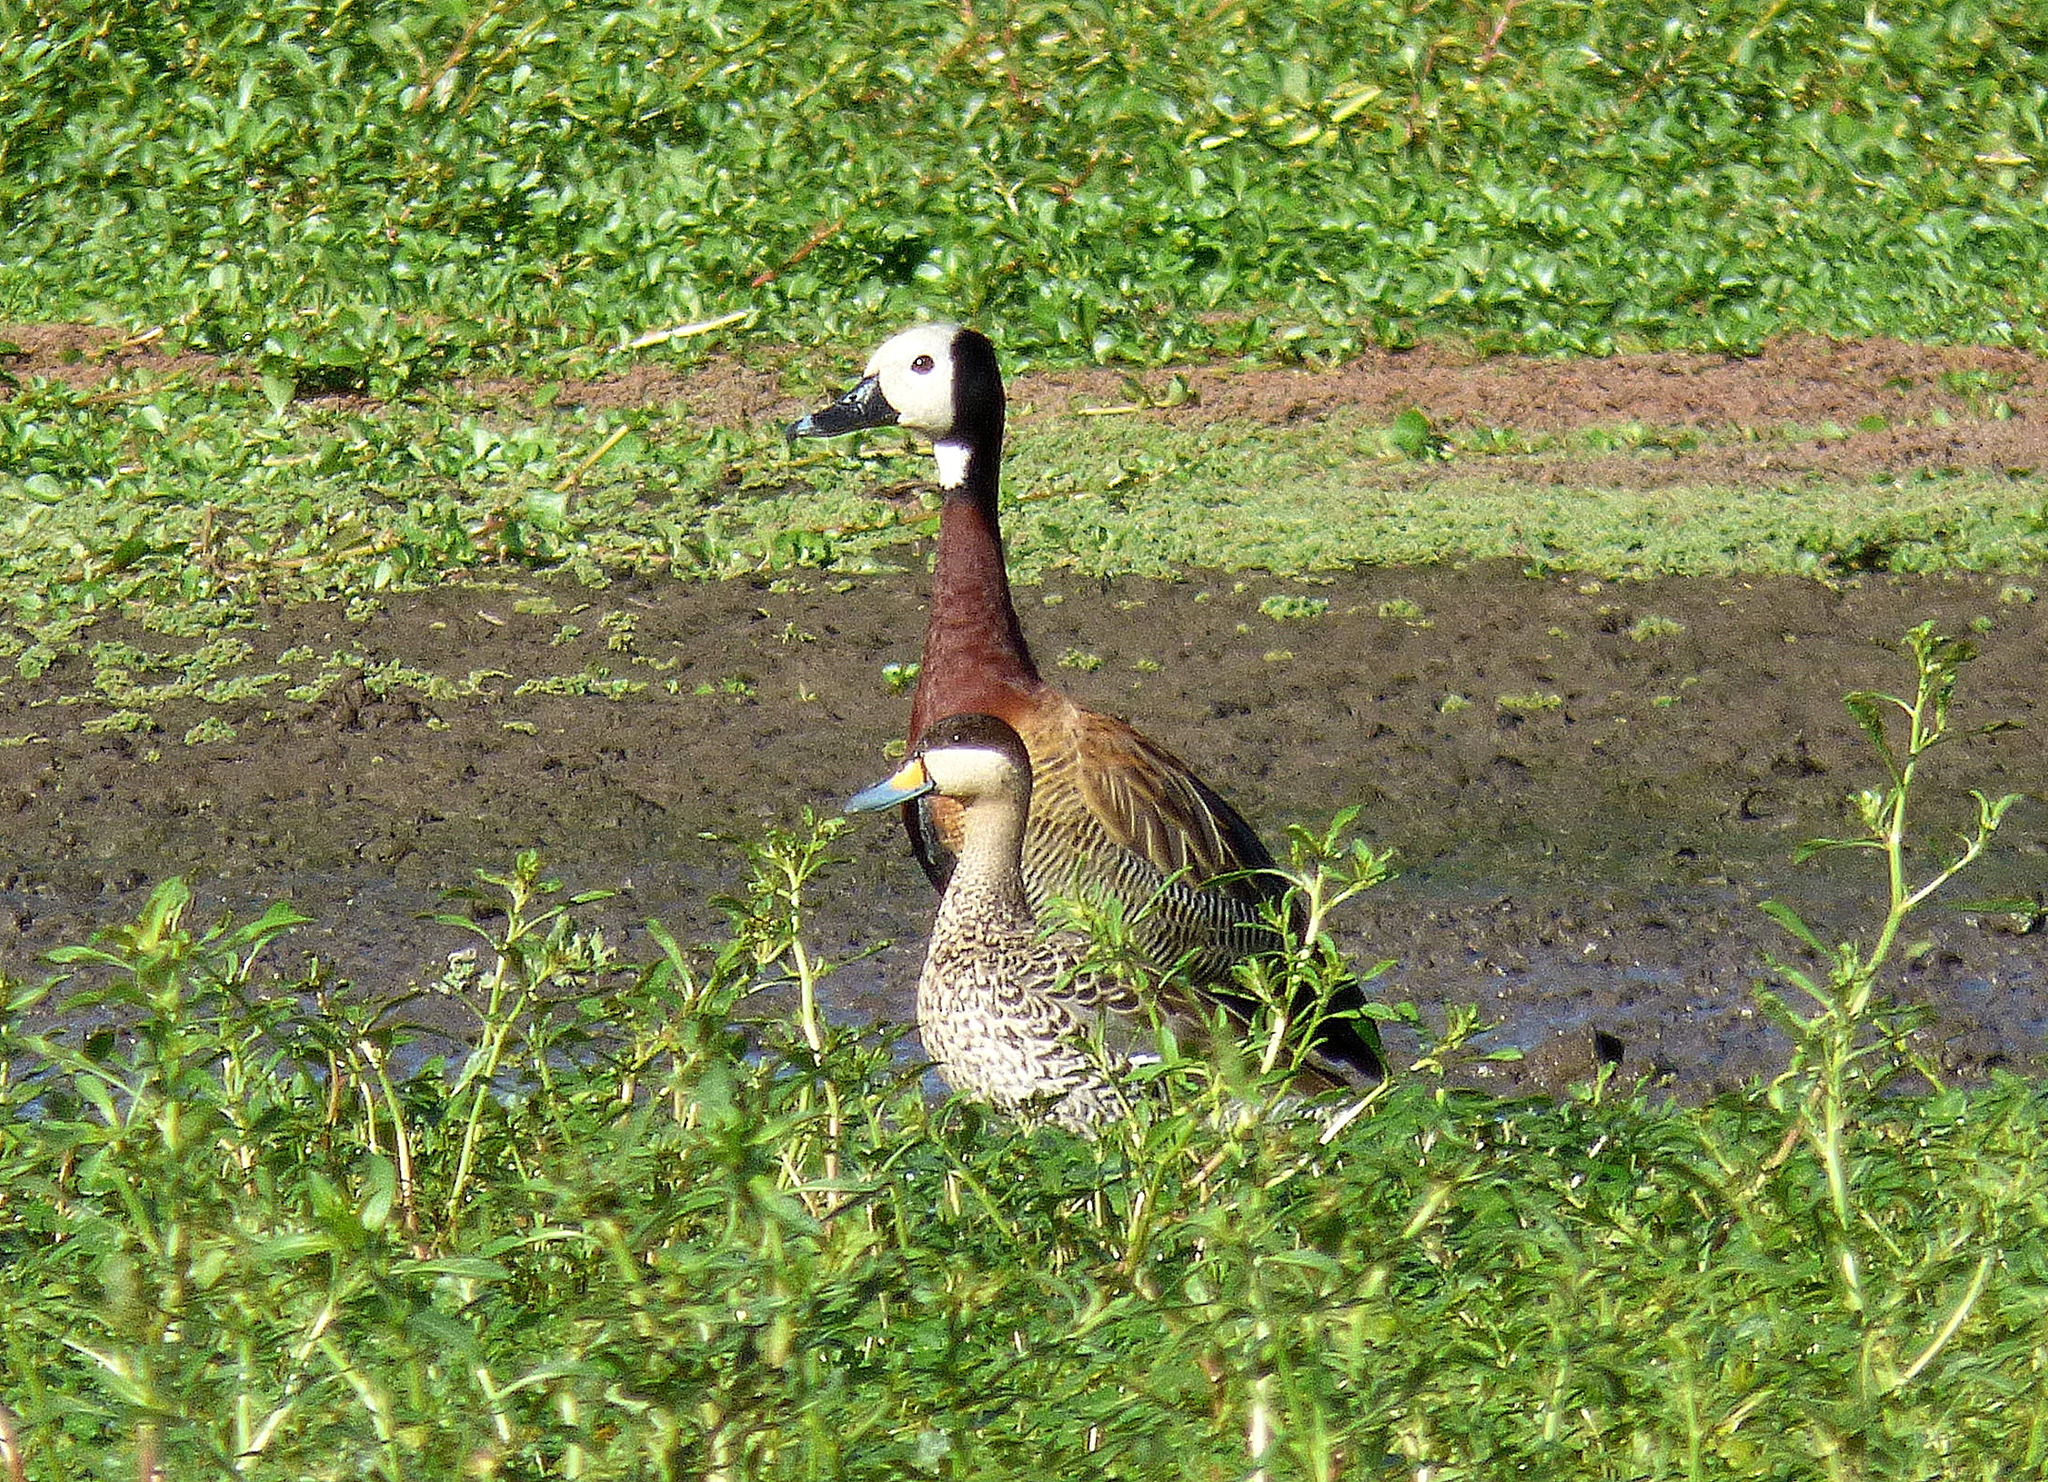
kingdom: Animalia
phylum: Chordata
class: Aves
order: Anseriformes
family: Anatidae
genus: Spatula
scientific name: Spatula versicolor
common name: Silver teal
